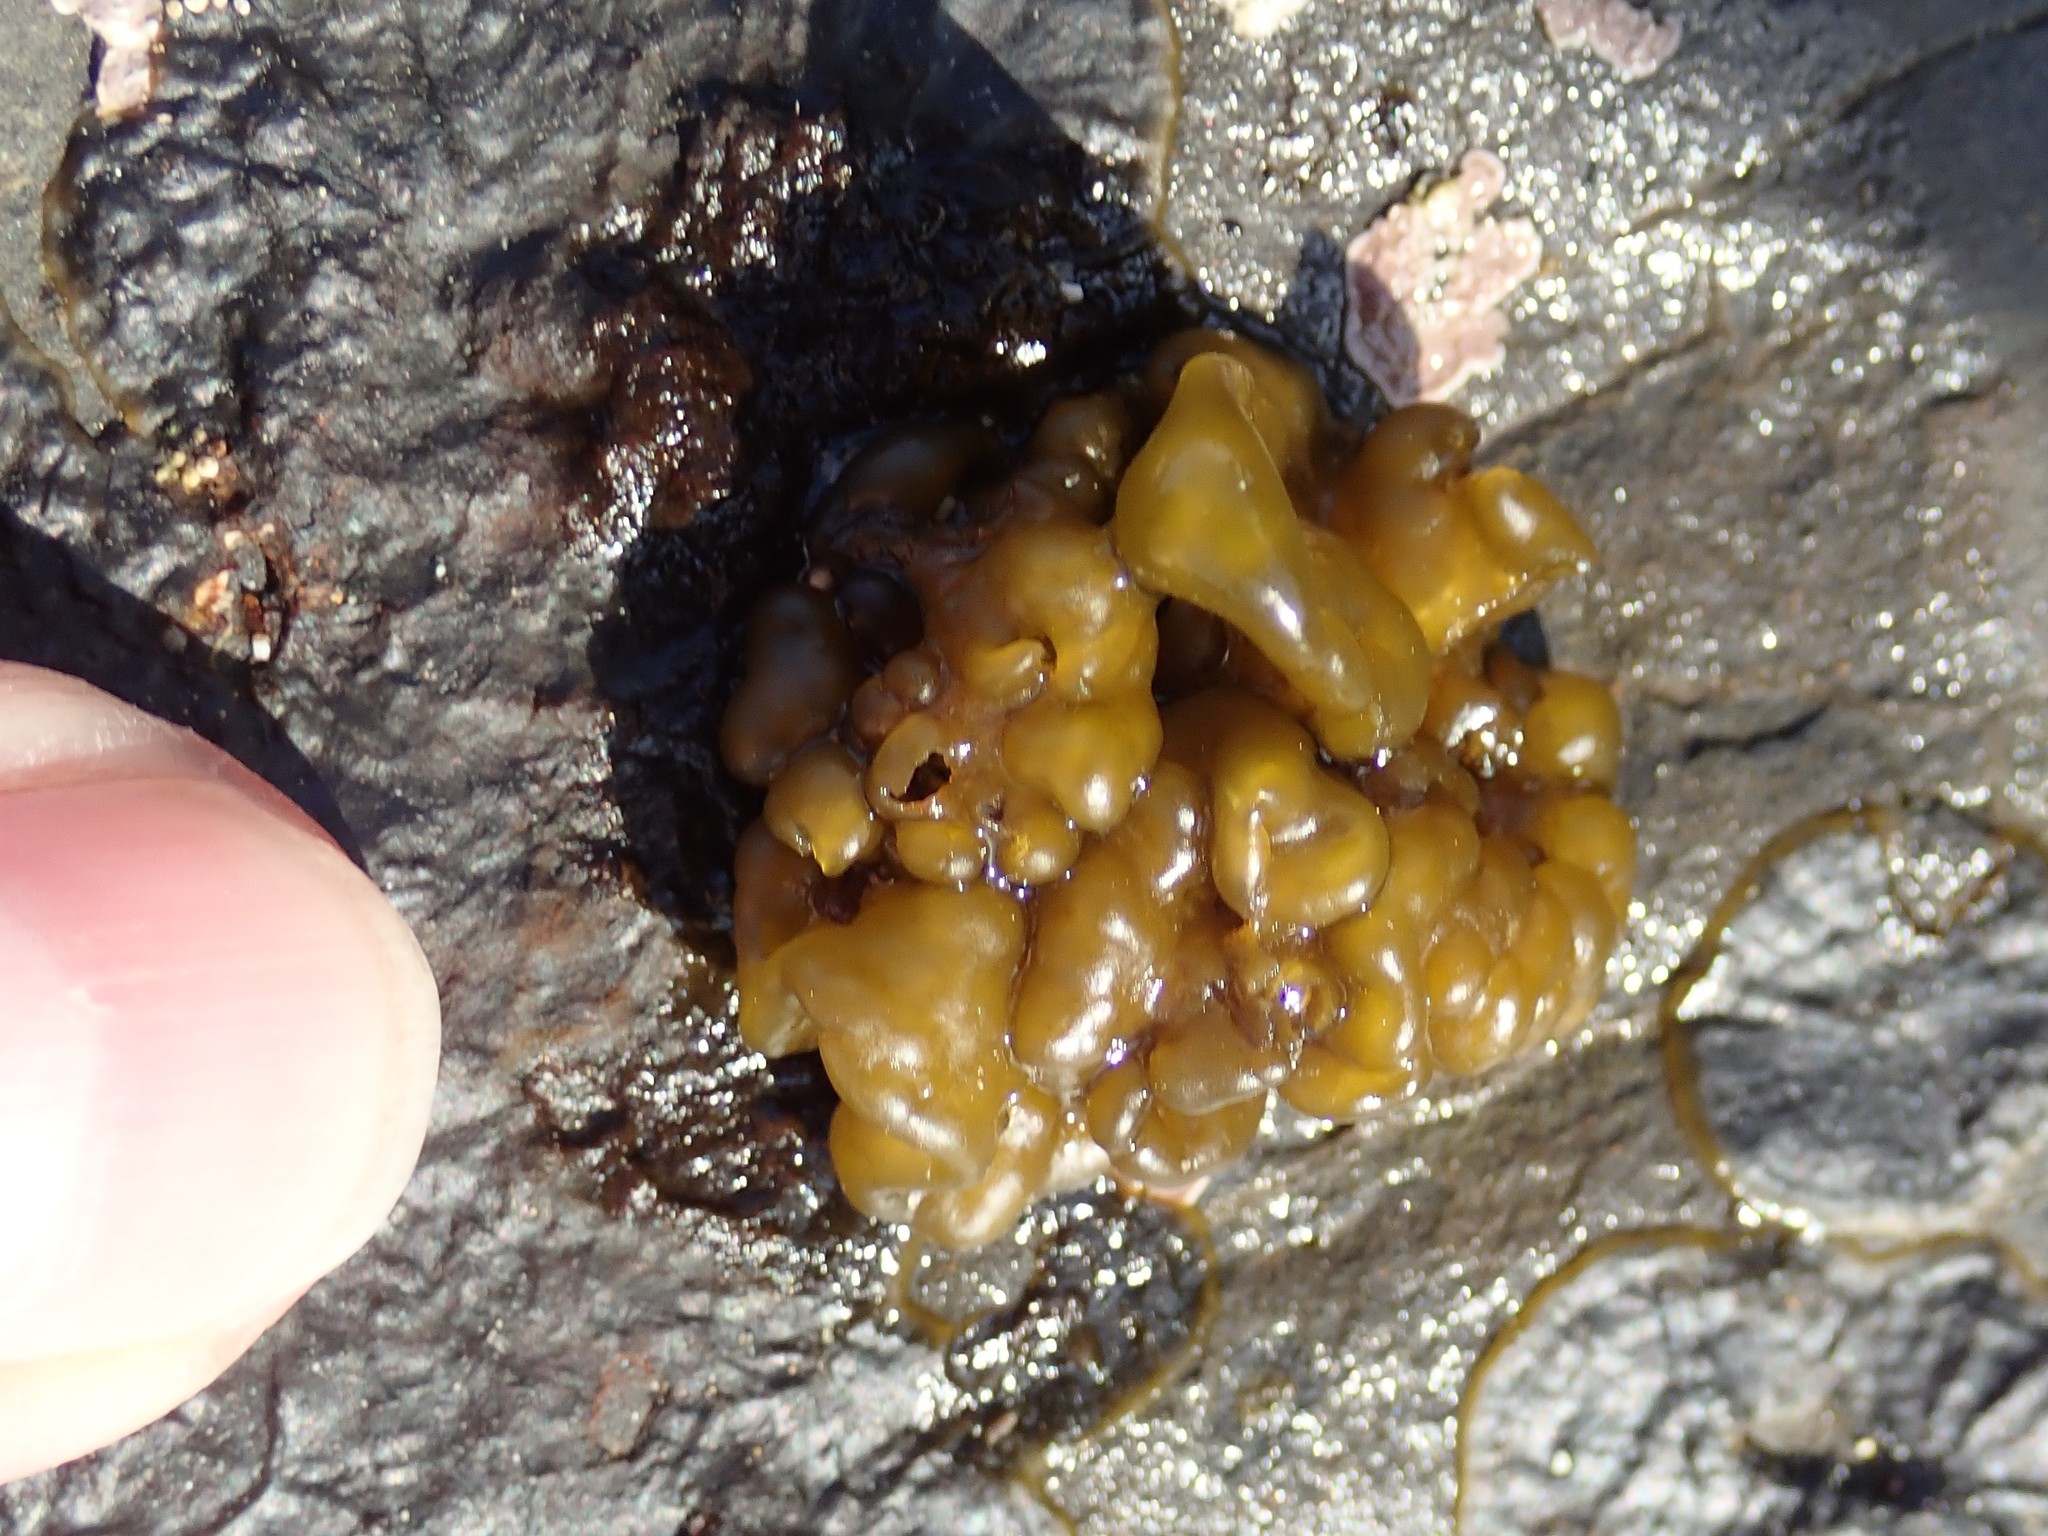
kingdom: Chromista
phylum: Ochrophyta
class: Phaeophyceae
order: Ectocarpales
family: Chordariaceae
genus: Leathesia
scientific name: Leathesia marina
